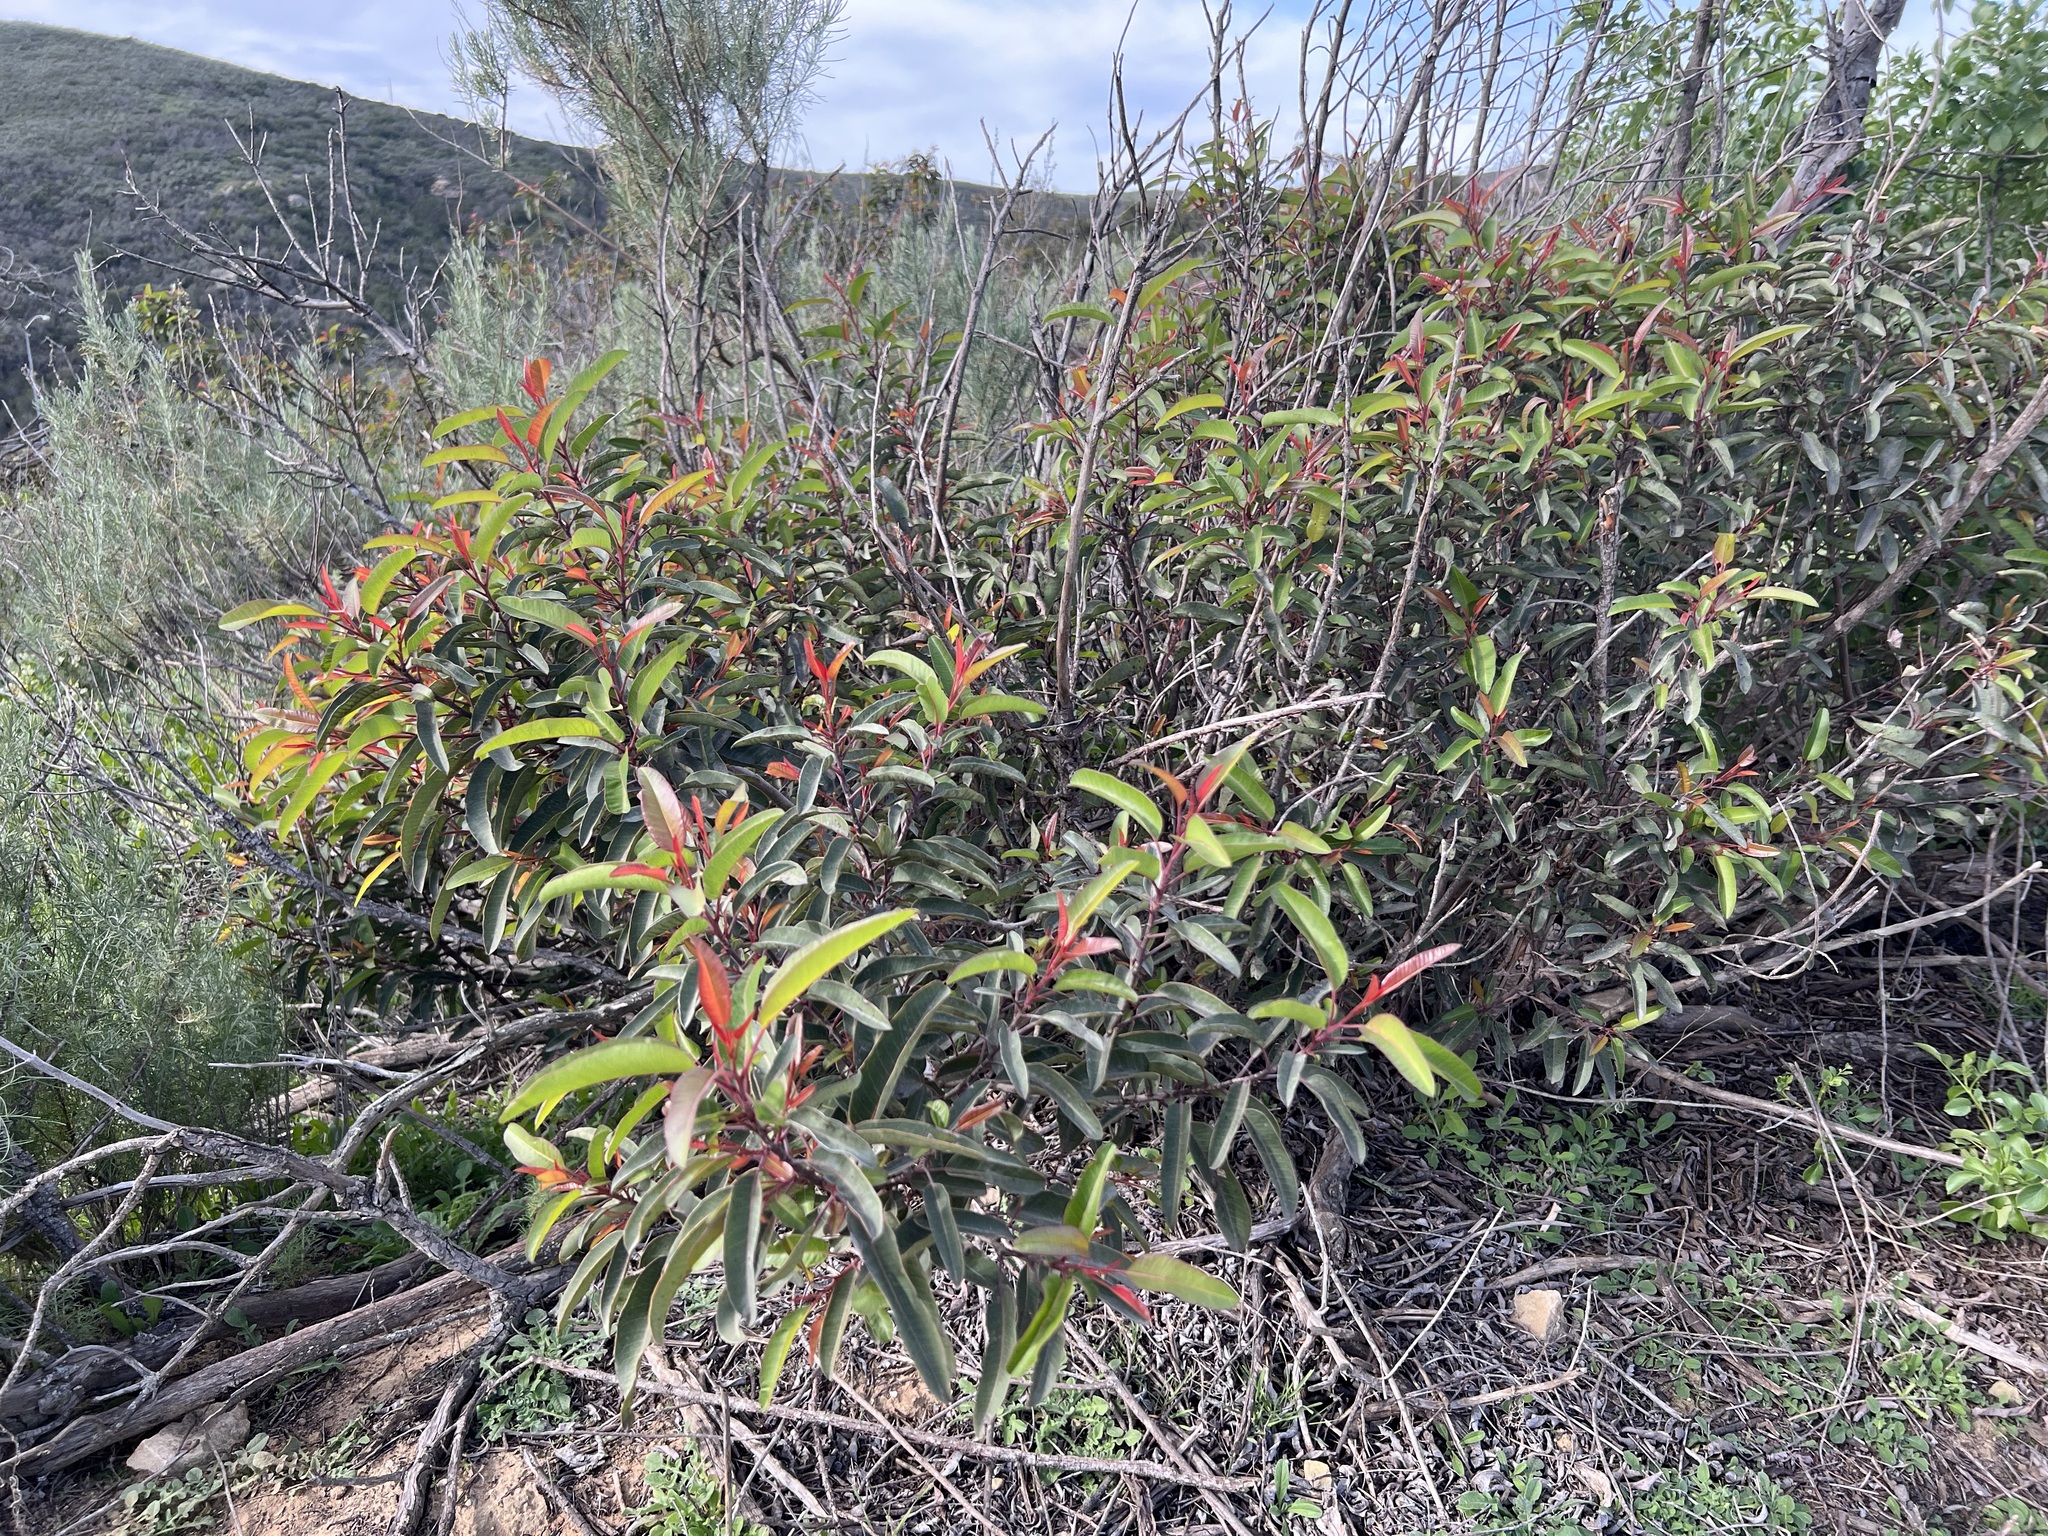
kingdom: Plantae
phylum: Tracheophyta
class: Magnoliopsida
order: Sapindales
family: Anacardiaceae
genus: Malosma
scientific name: Malosma laurina
